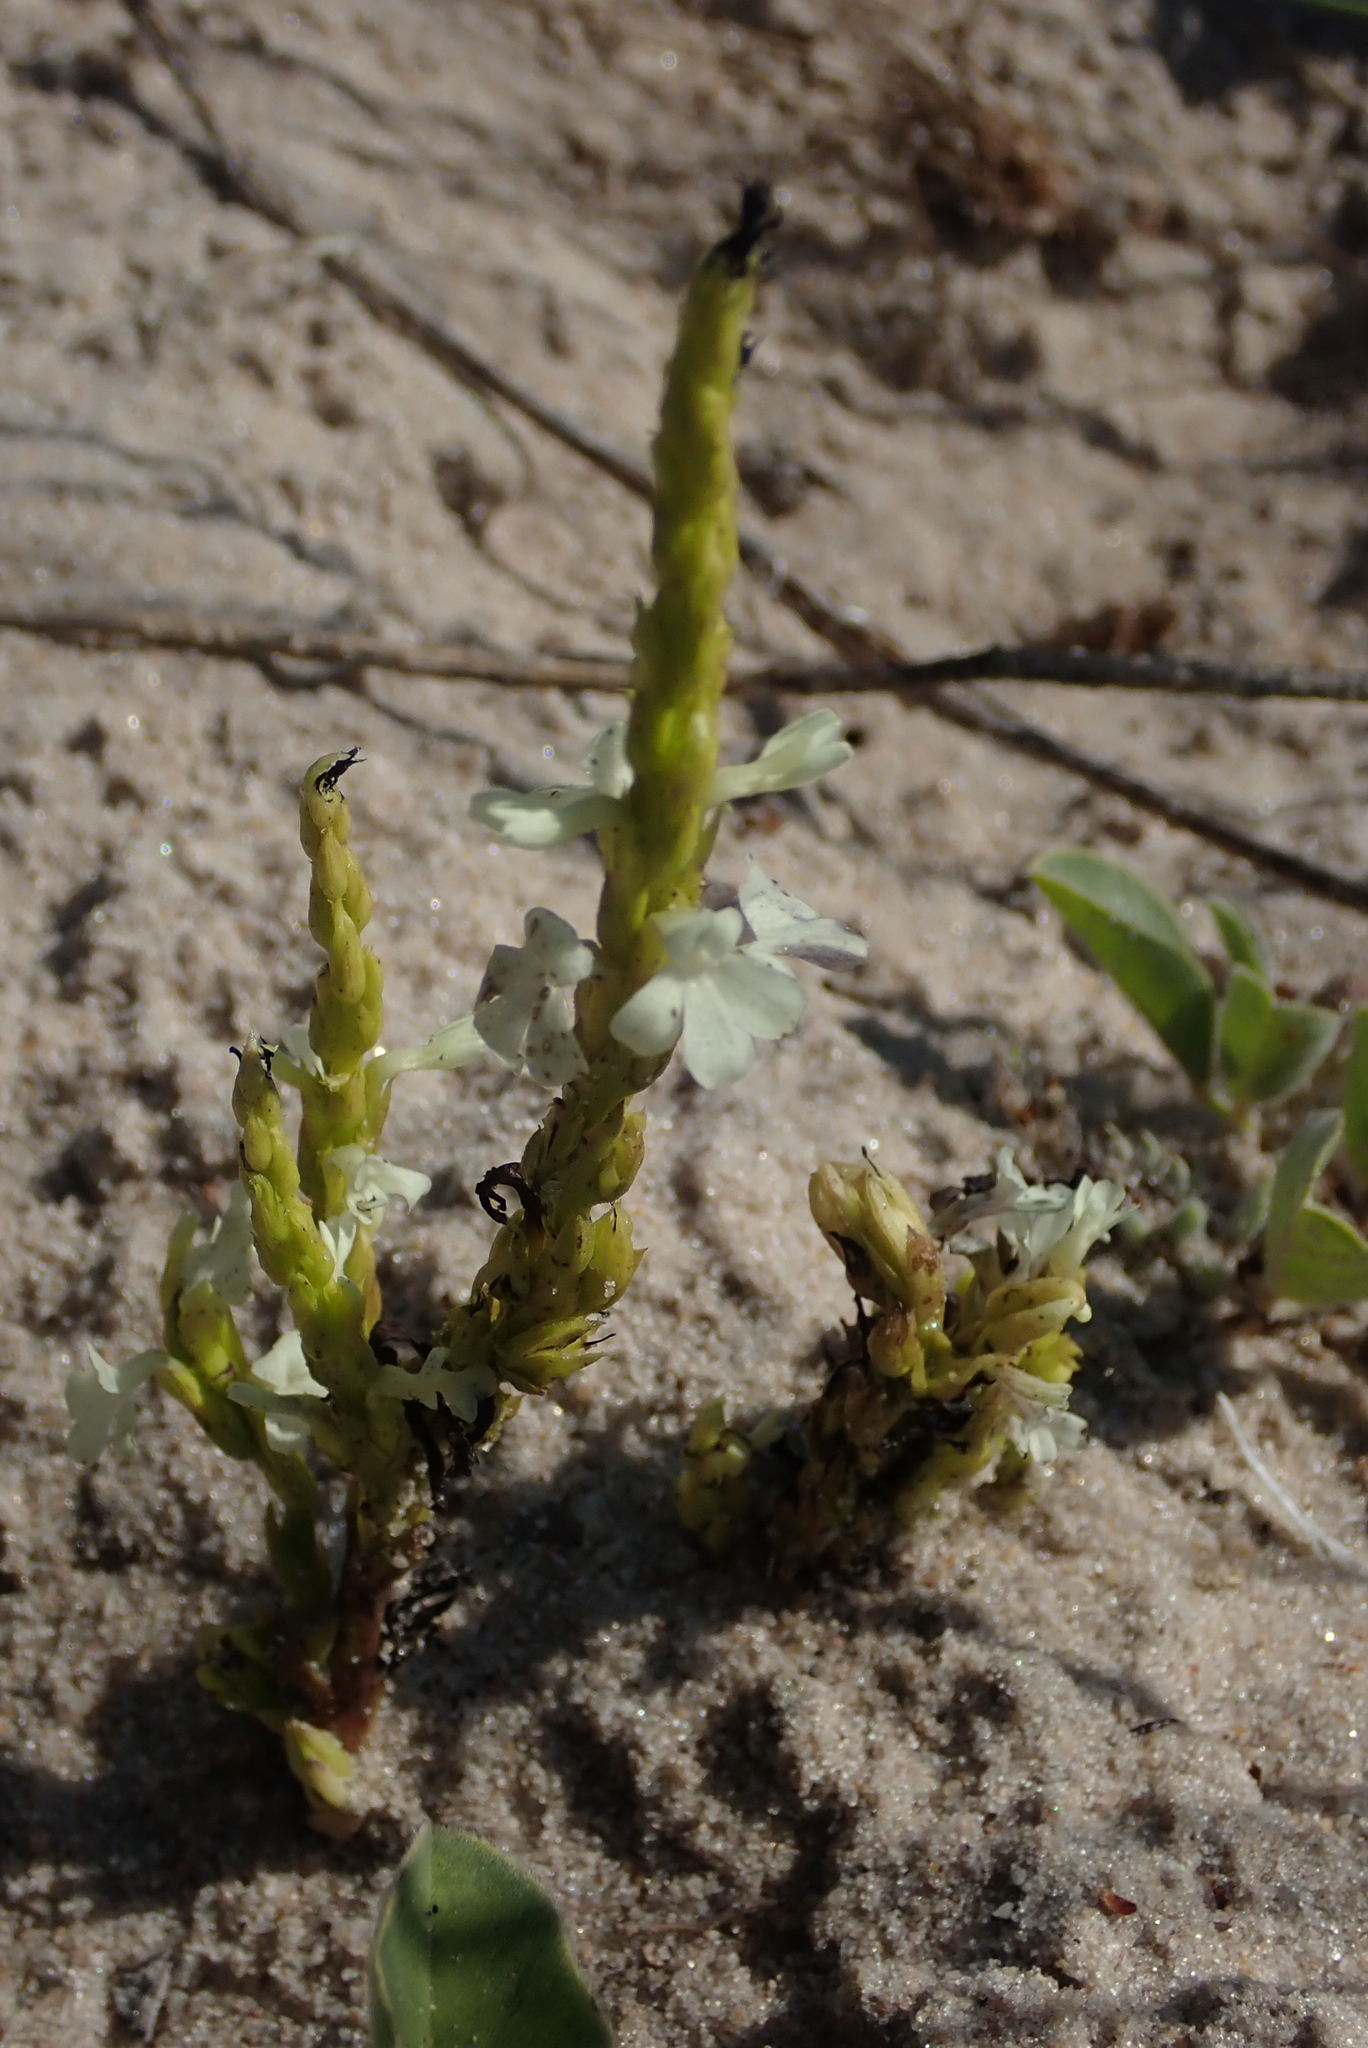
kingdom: Plantae
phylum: Tracheophyta
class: Magnoliopsida
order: Lamiales
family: Orobanchaceae
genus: Striga
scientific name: Striga gesnerioides
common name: Cowpea witchweed
